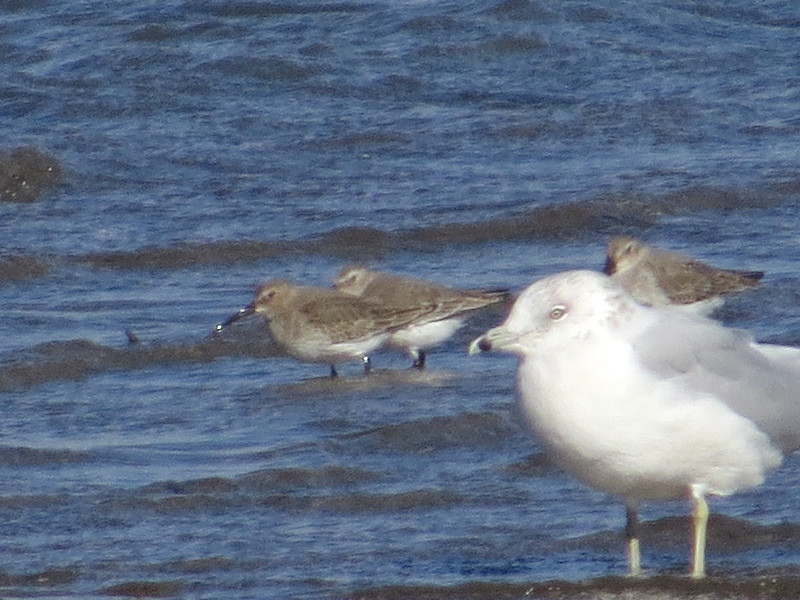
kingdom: Animalia
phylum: Chordata
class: Aves
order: Charadriiformes
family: Scolopacidae
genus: Calidris
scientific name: Calidris alpina
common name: Dunlin
